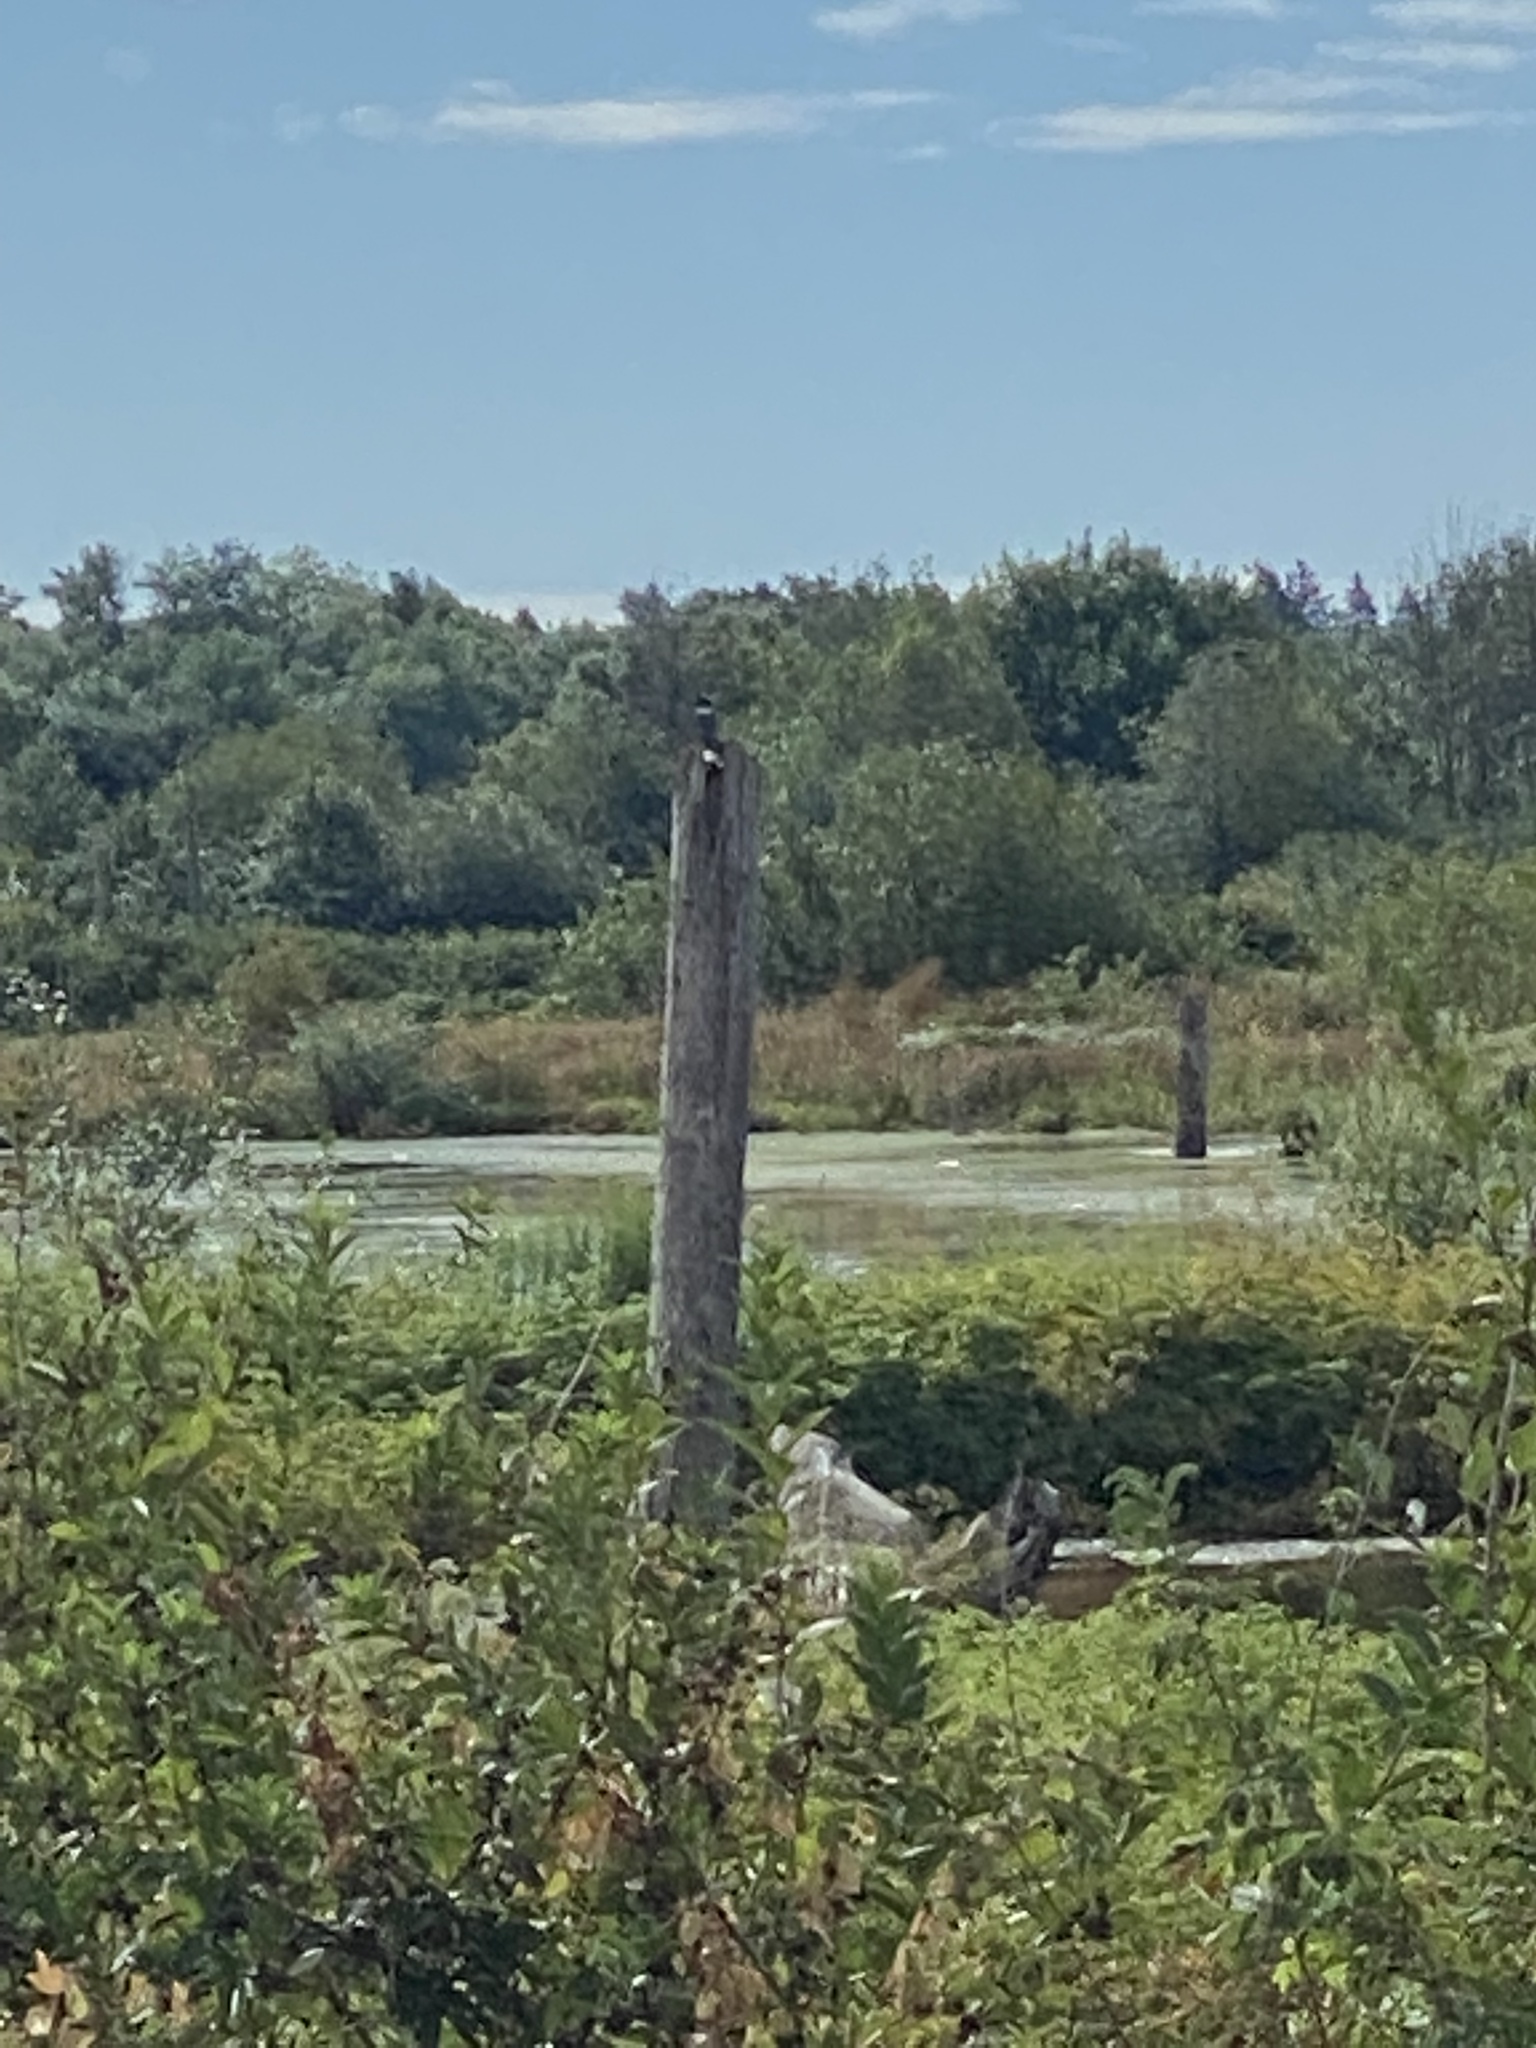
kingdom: Animalia
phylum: Chordata
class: Aves
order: Coraciiformes
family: Alcedinidae
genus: Megaceryle
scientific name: Megaceryle alcyon
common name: Belted kingfisher
